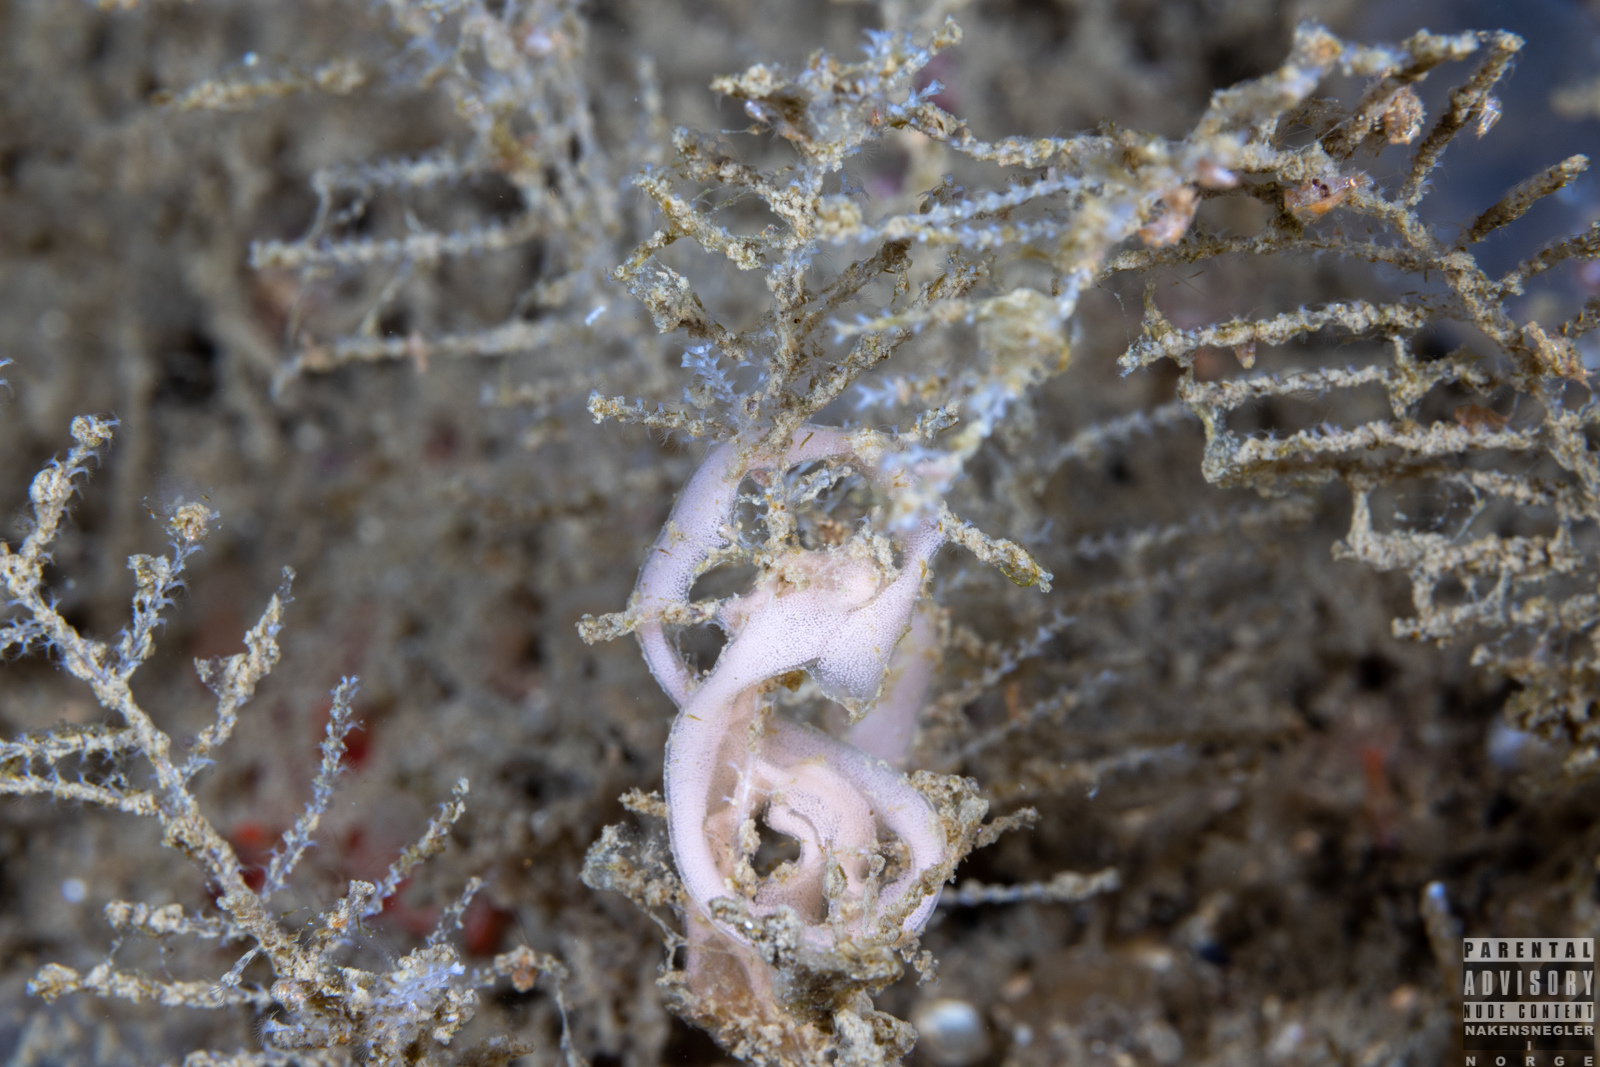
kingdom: Animalia
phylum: Mollusca
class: Gastropoda
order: Nudibranchia
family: Polyceridae
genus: Palio
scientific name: Palio dubia
